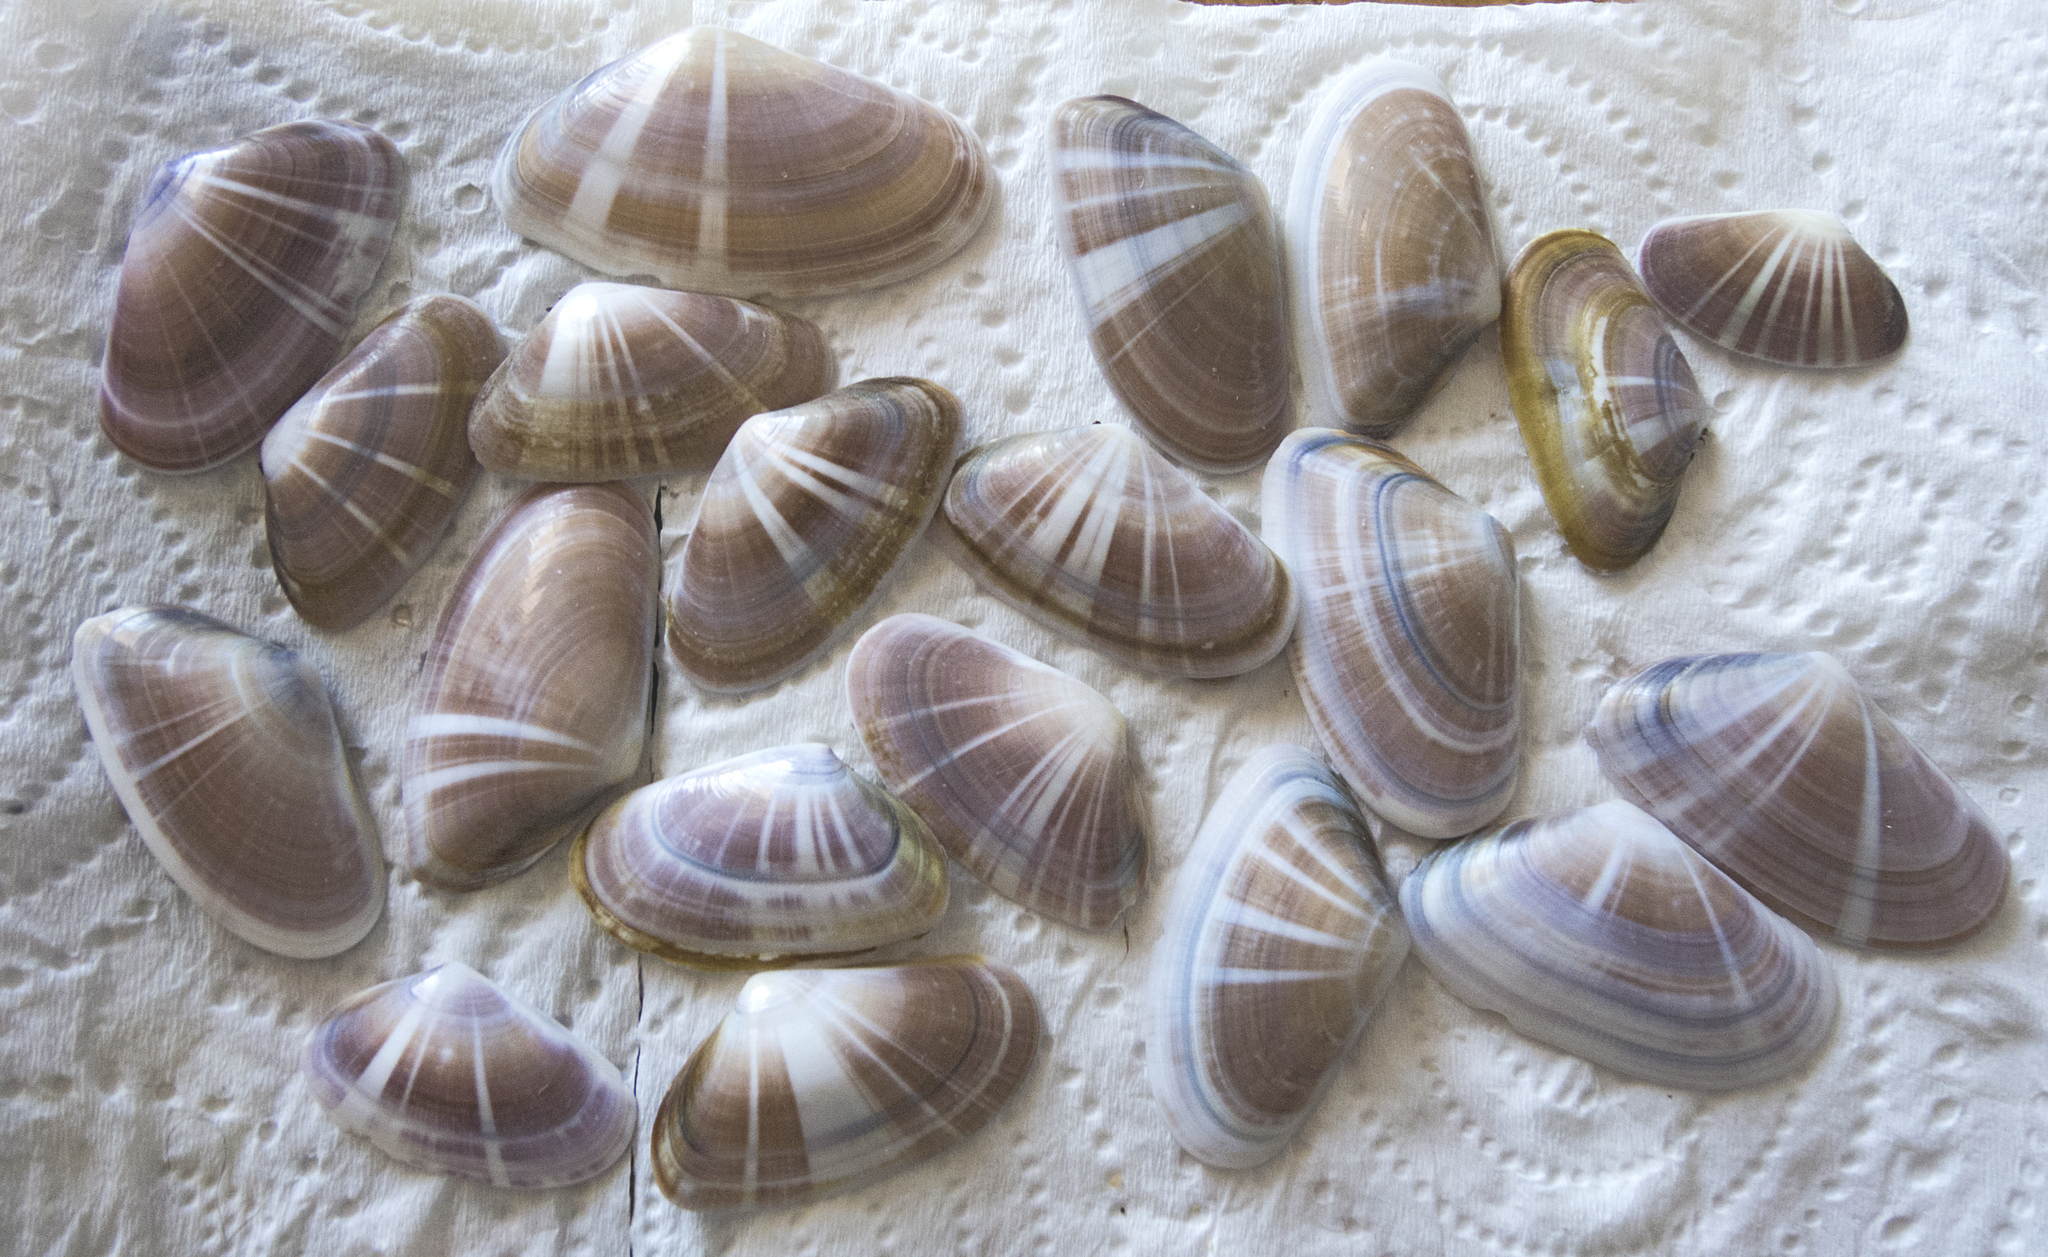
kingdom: Animalia
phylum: Mollusca
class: Bivalvia
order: Cardiida
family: Donacidae
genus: Donax
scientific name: Donax trunculus
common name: Truncate donax
